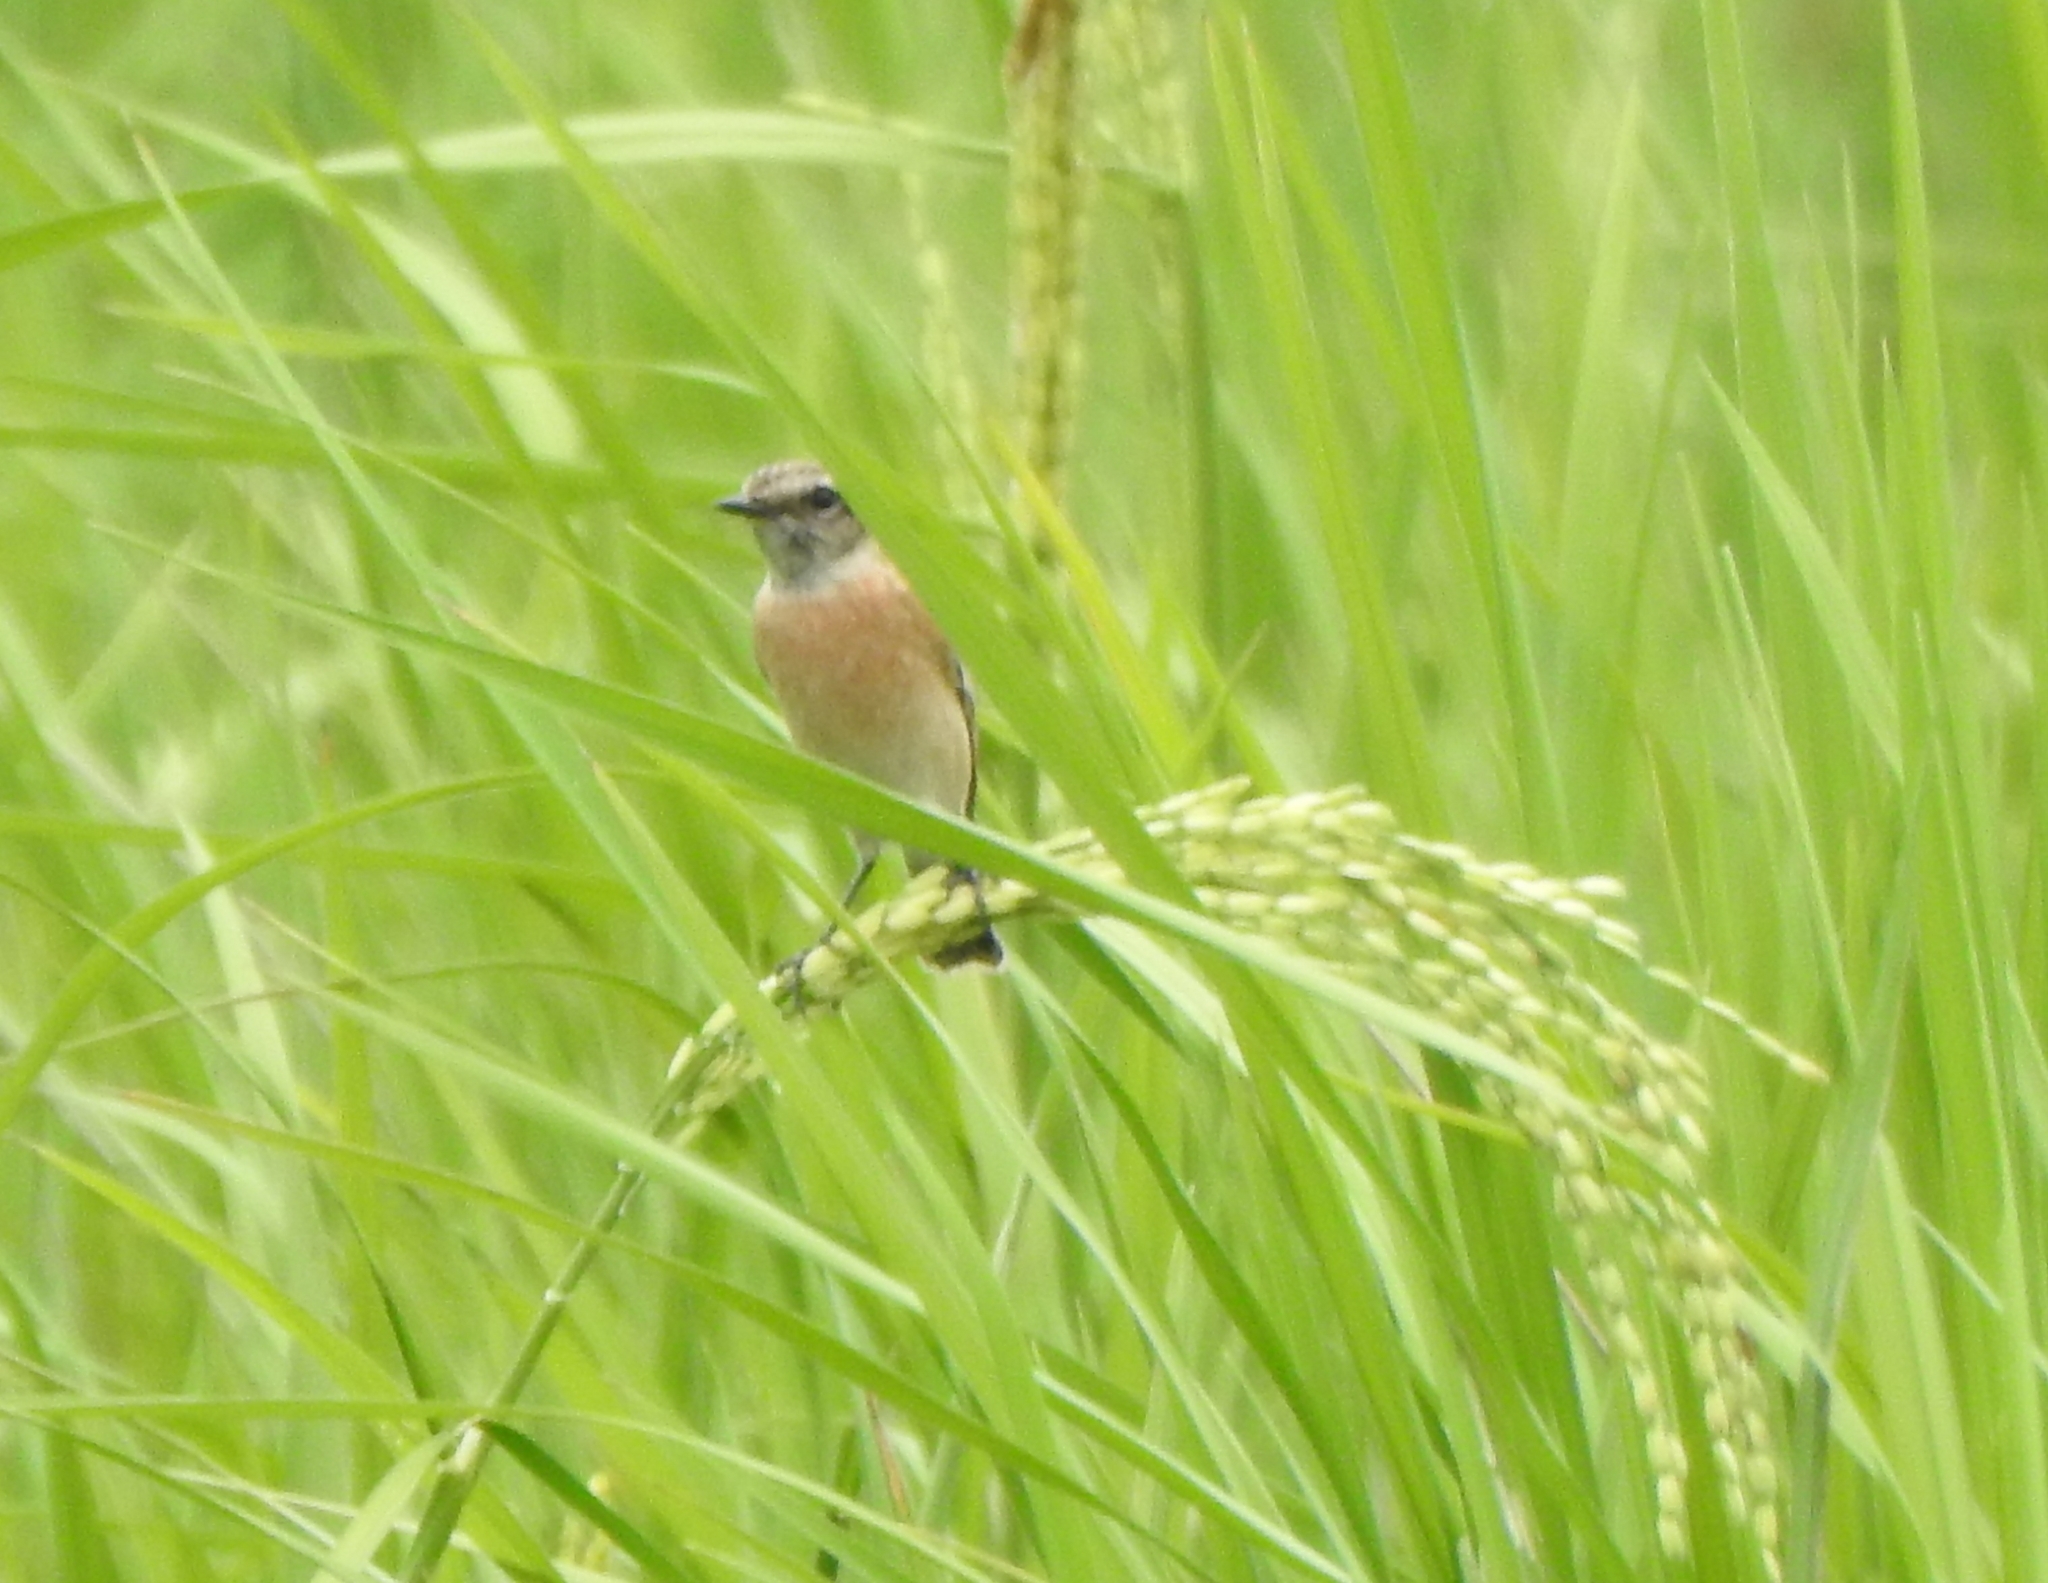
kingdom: Animalia
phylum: Chordata
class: Aves
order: Passeriformes
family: Muscicapidae
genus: Saxicola
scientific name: Saxicola maurus
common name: Siberian stonechat
